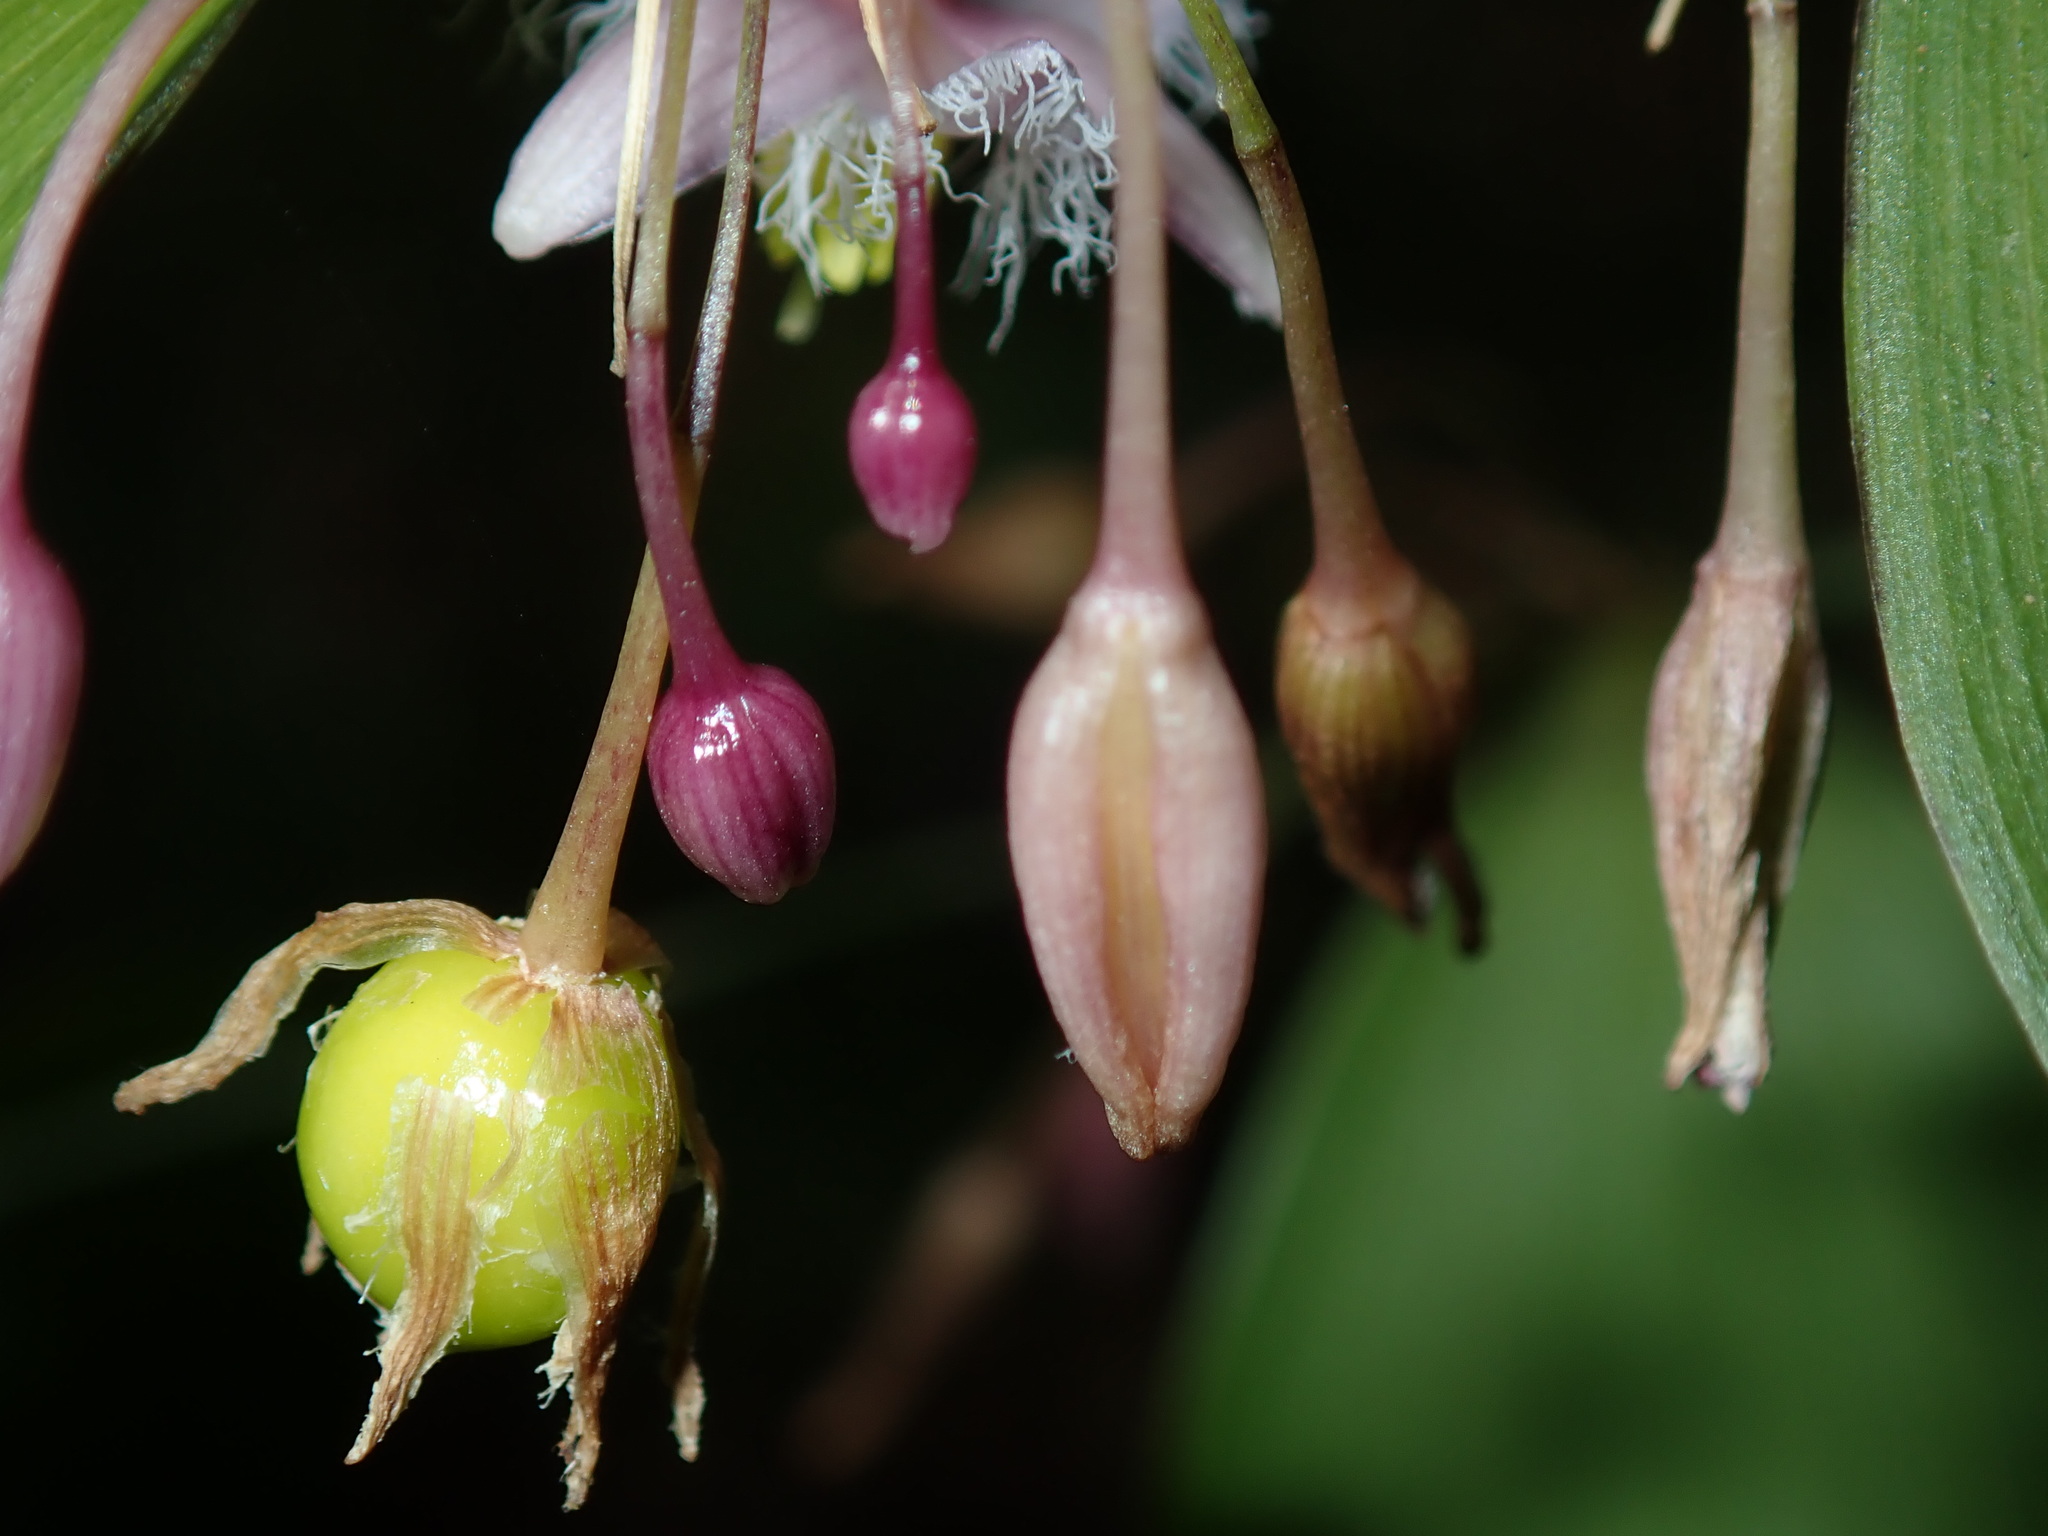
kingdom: Plantae
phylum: Tracheophyta
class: Liliopsida
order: Asparagales
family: Asparagaceae
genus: Eustrephus
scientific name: Eustrephus latifolius
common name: Orangevine
